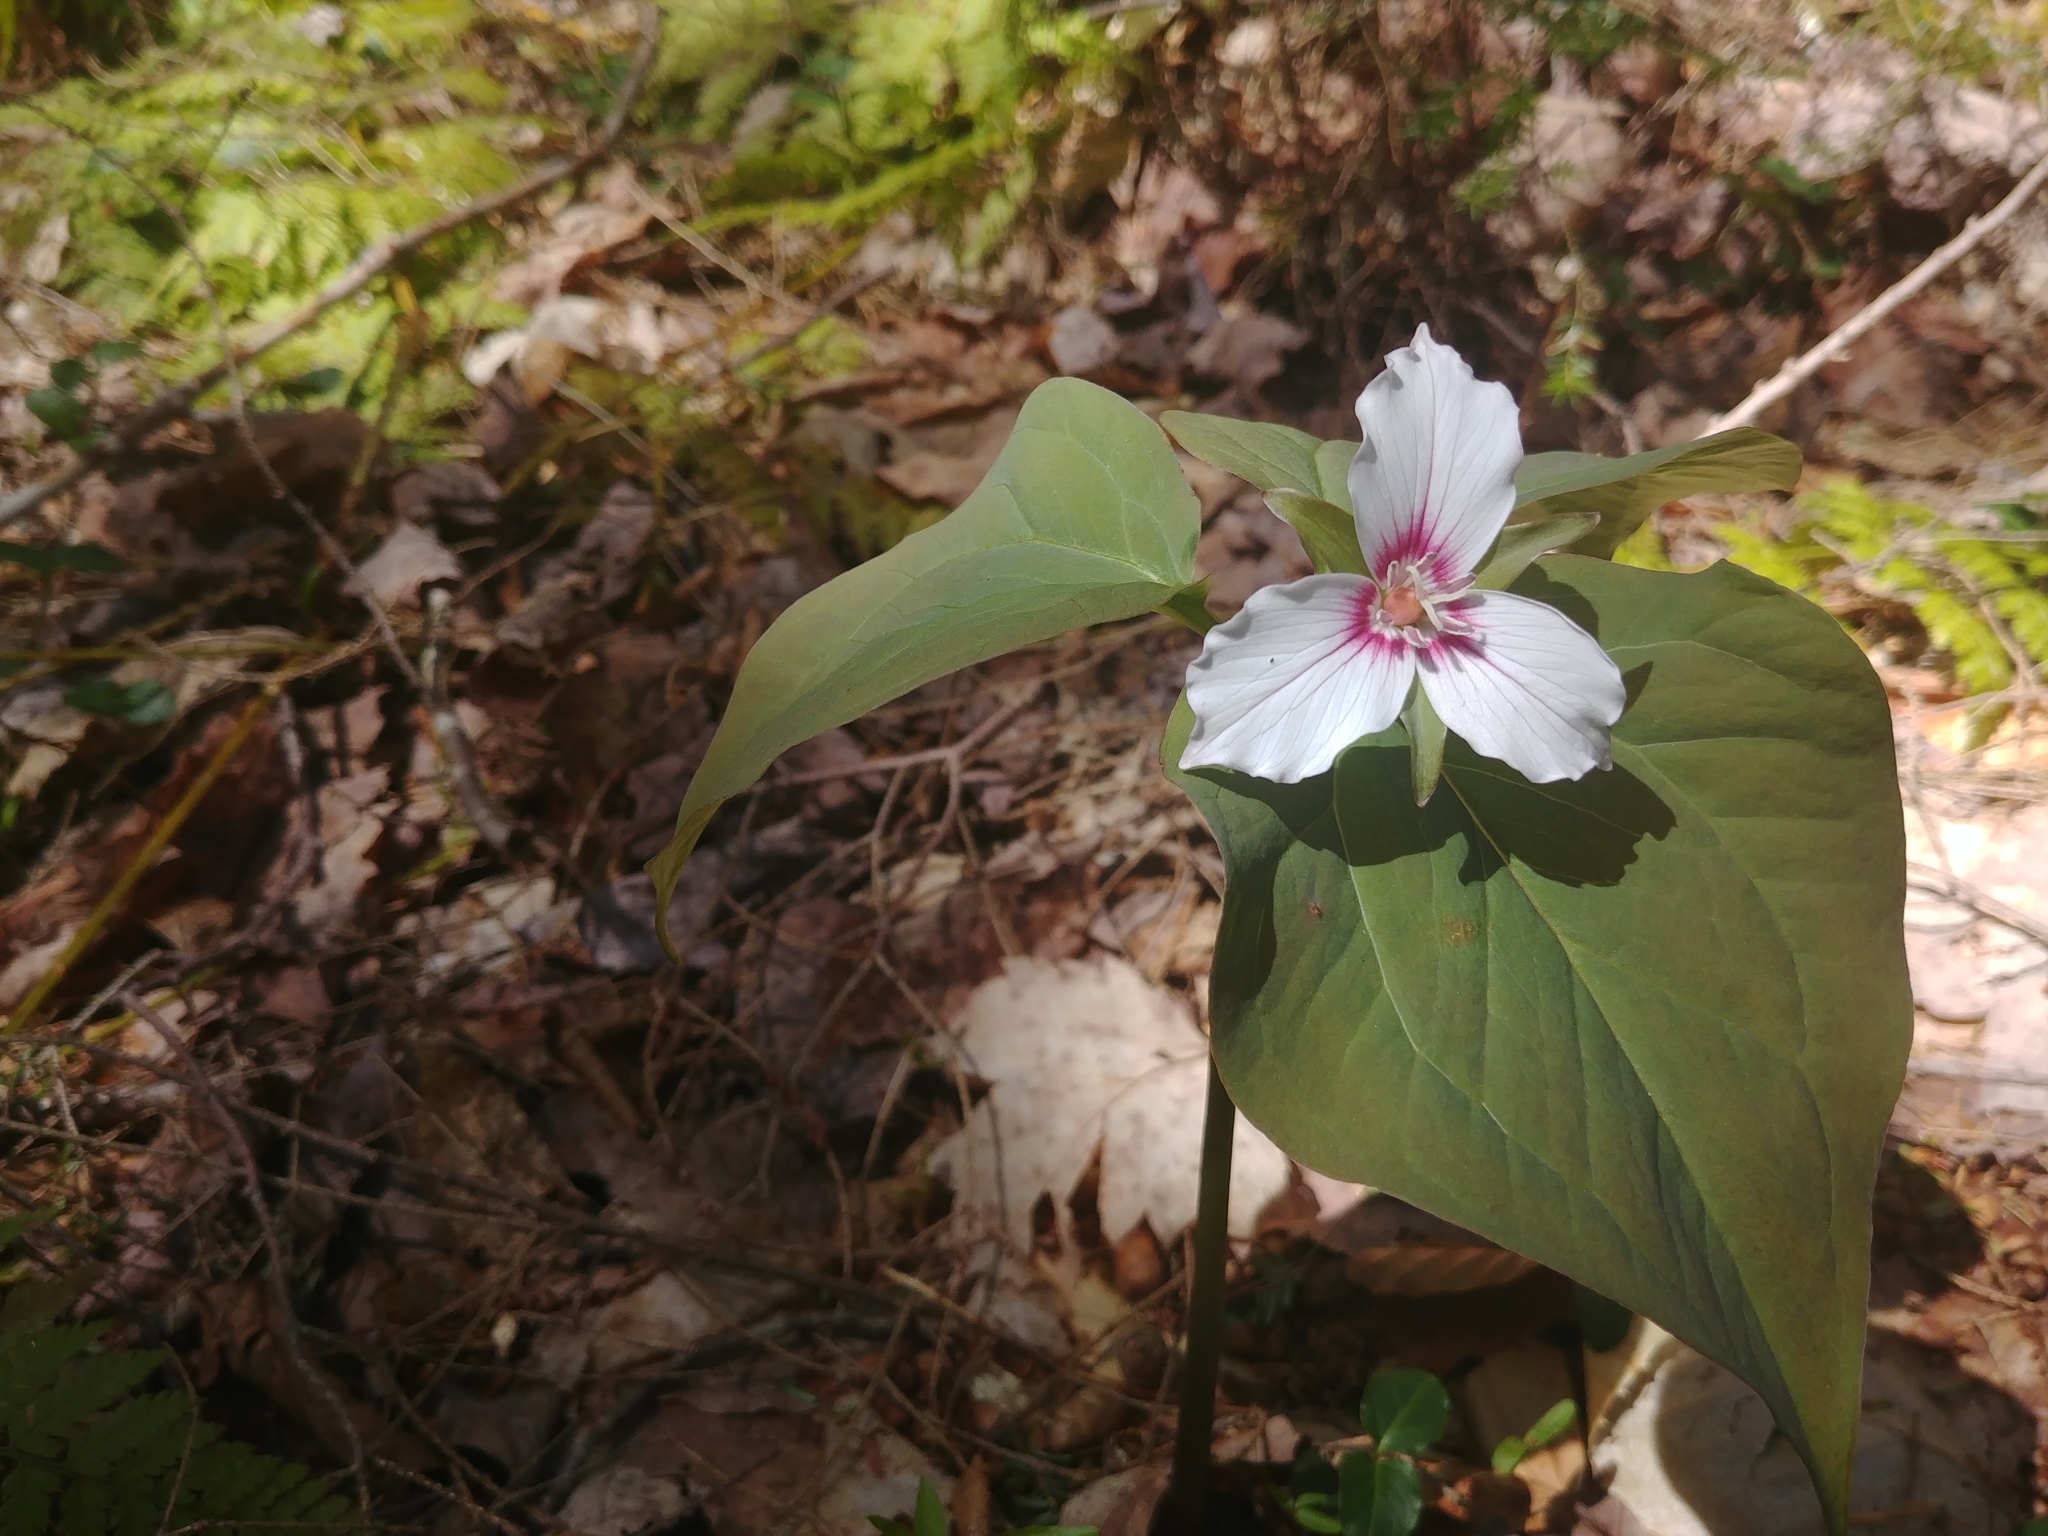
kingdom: Plantae
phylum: Tracheophyta
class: Liliopsida
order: Liliales
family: Melanthiaceae
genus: Trillium
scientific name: Trillium undulatum
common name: Paint trillium
